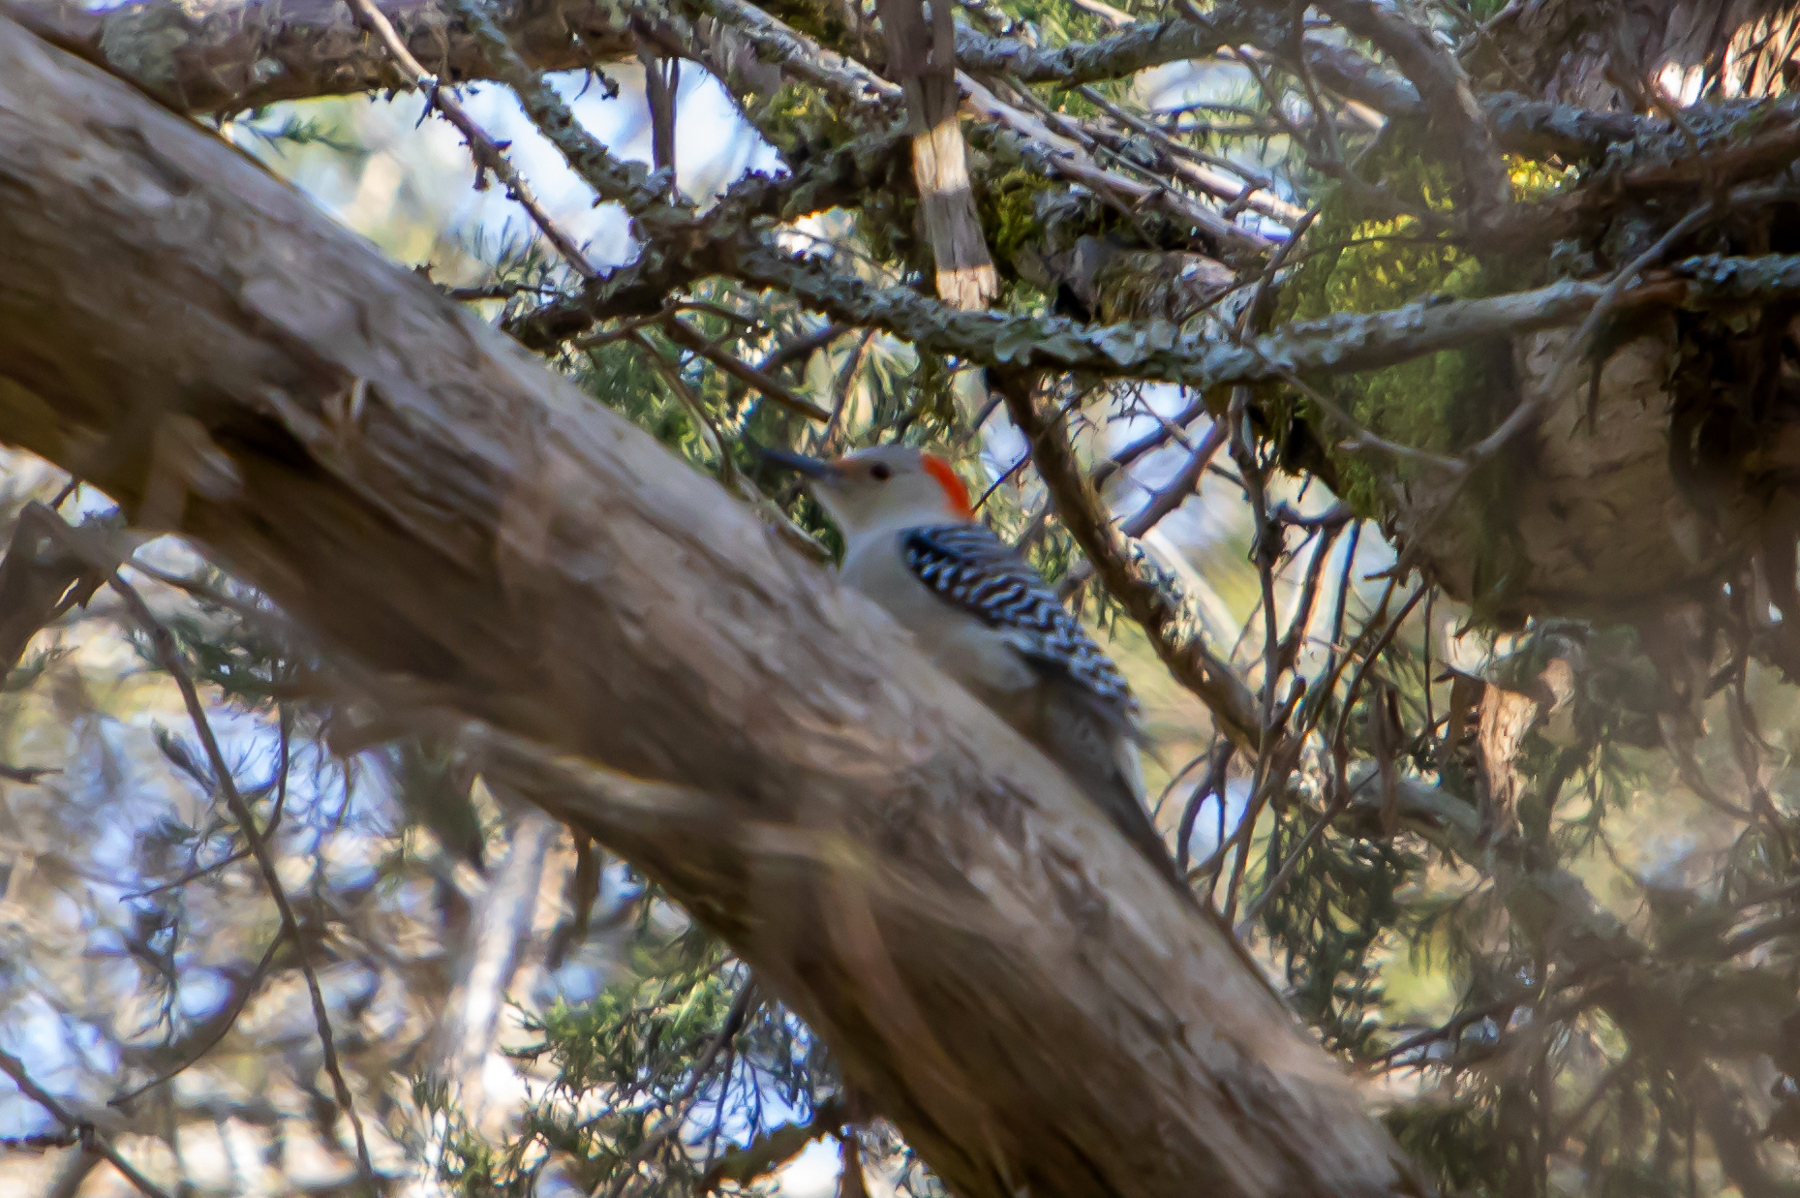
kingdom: Animalia
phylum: Chordata
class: Aves
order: Piciformes
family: Picidae
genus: Melanerpes
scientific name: Melanerpes carolinus
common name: Red-bellied woodpecker
